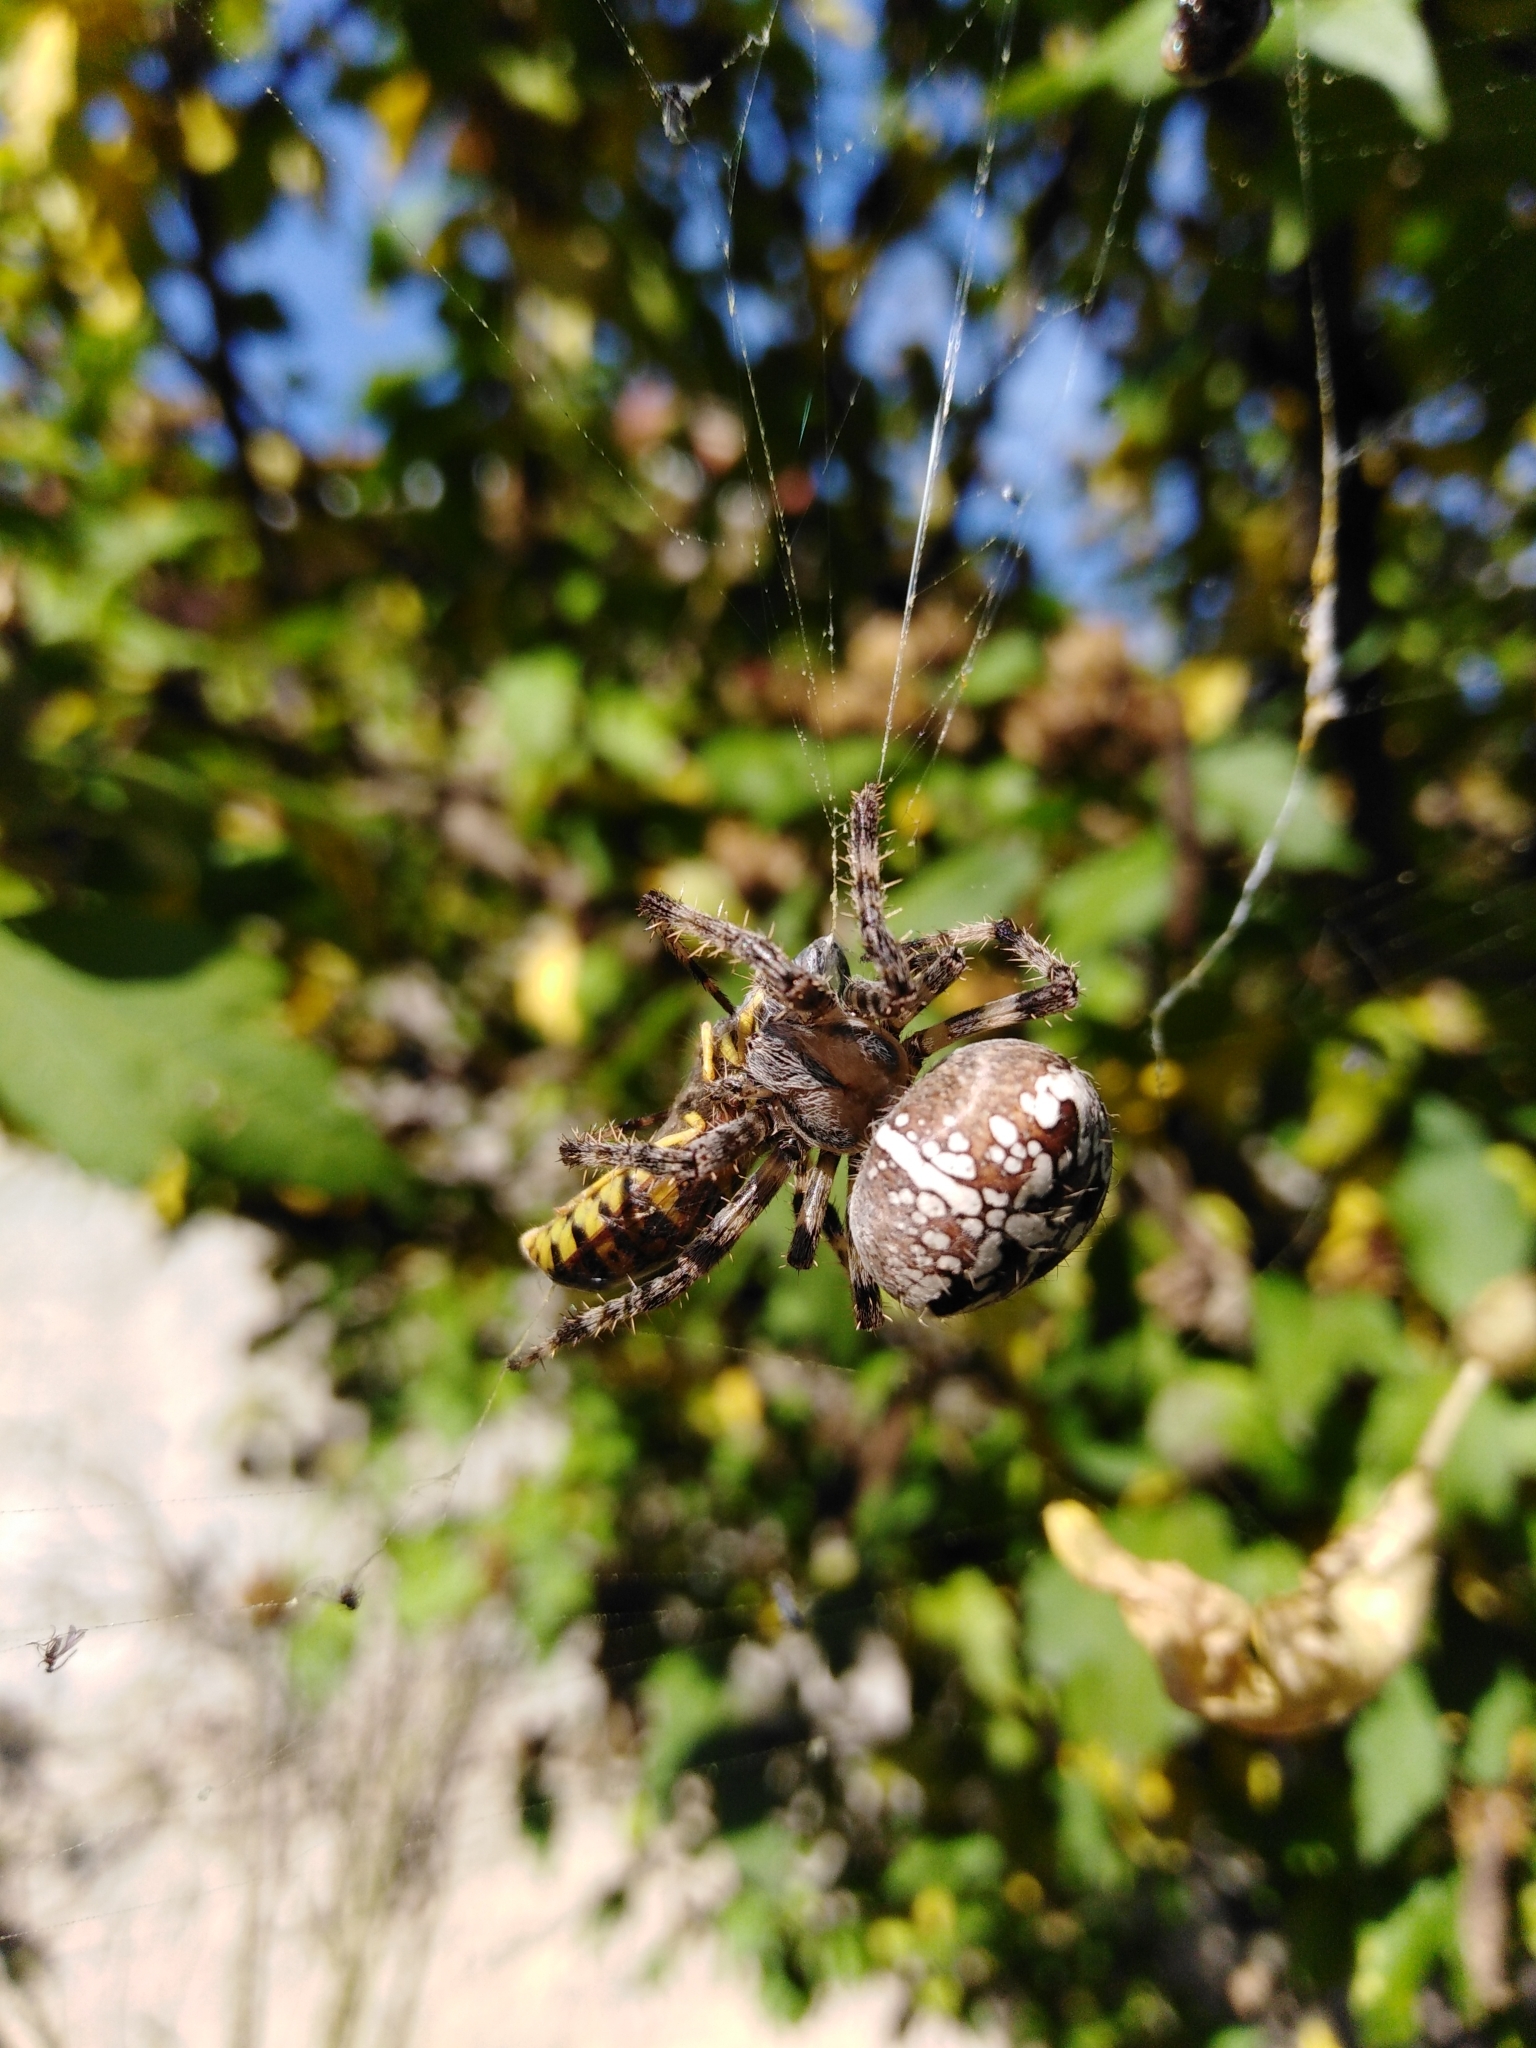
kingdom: Animalia
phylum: Arthropoda
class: Arachnida
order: Araneae
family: Araneidae
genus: Araneus
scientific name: Araneus diadematus
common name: Cross orbweaver
